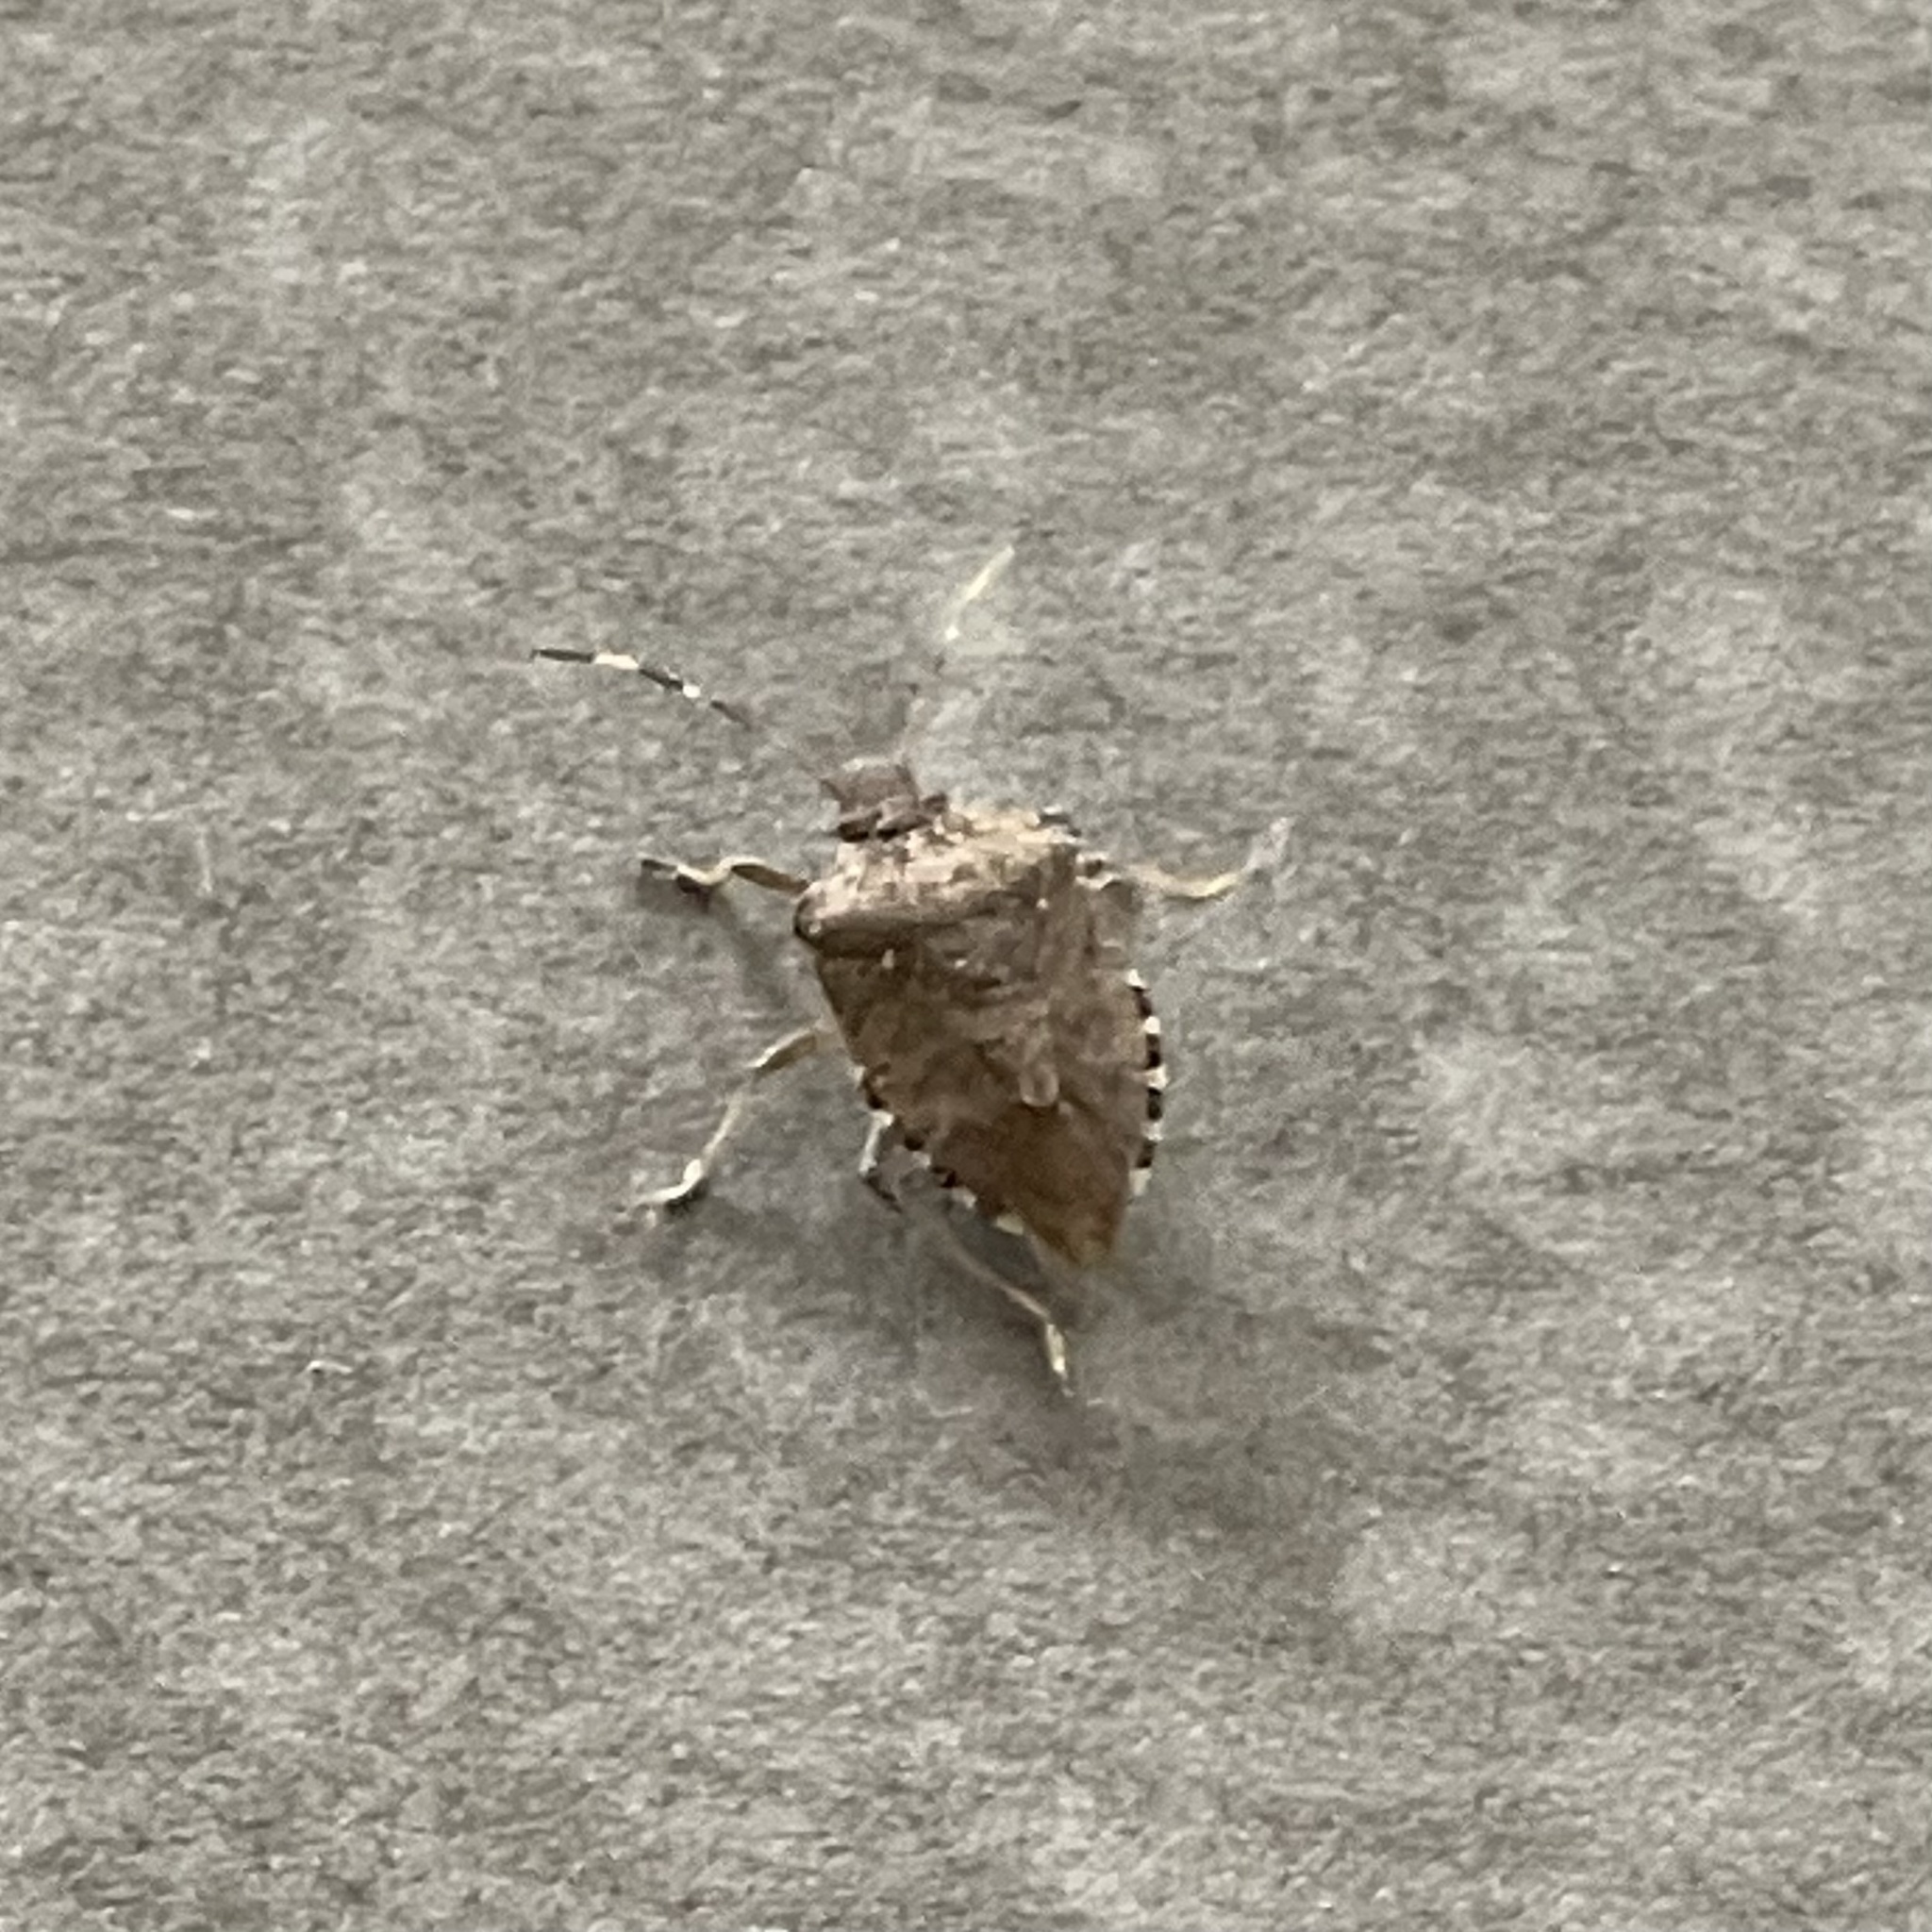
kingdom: Animalia
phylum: Arthropoda
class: Insecta
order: Hemiptera
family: Pentatomidae
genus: Halyomorpha
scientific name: Halyomorpha halys
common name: Brown marmorated stink bug
